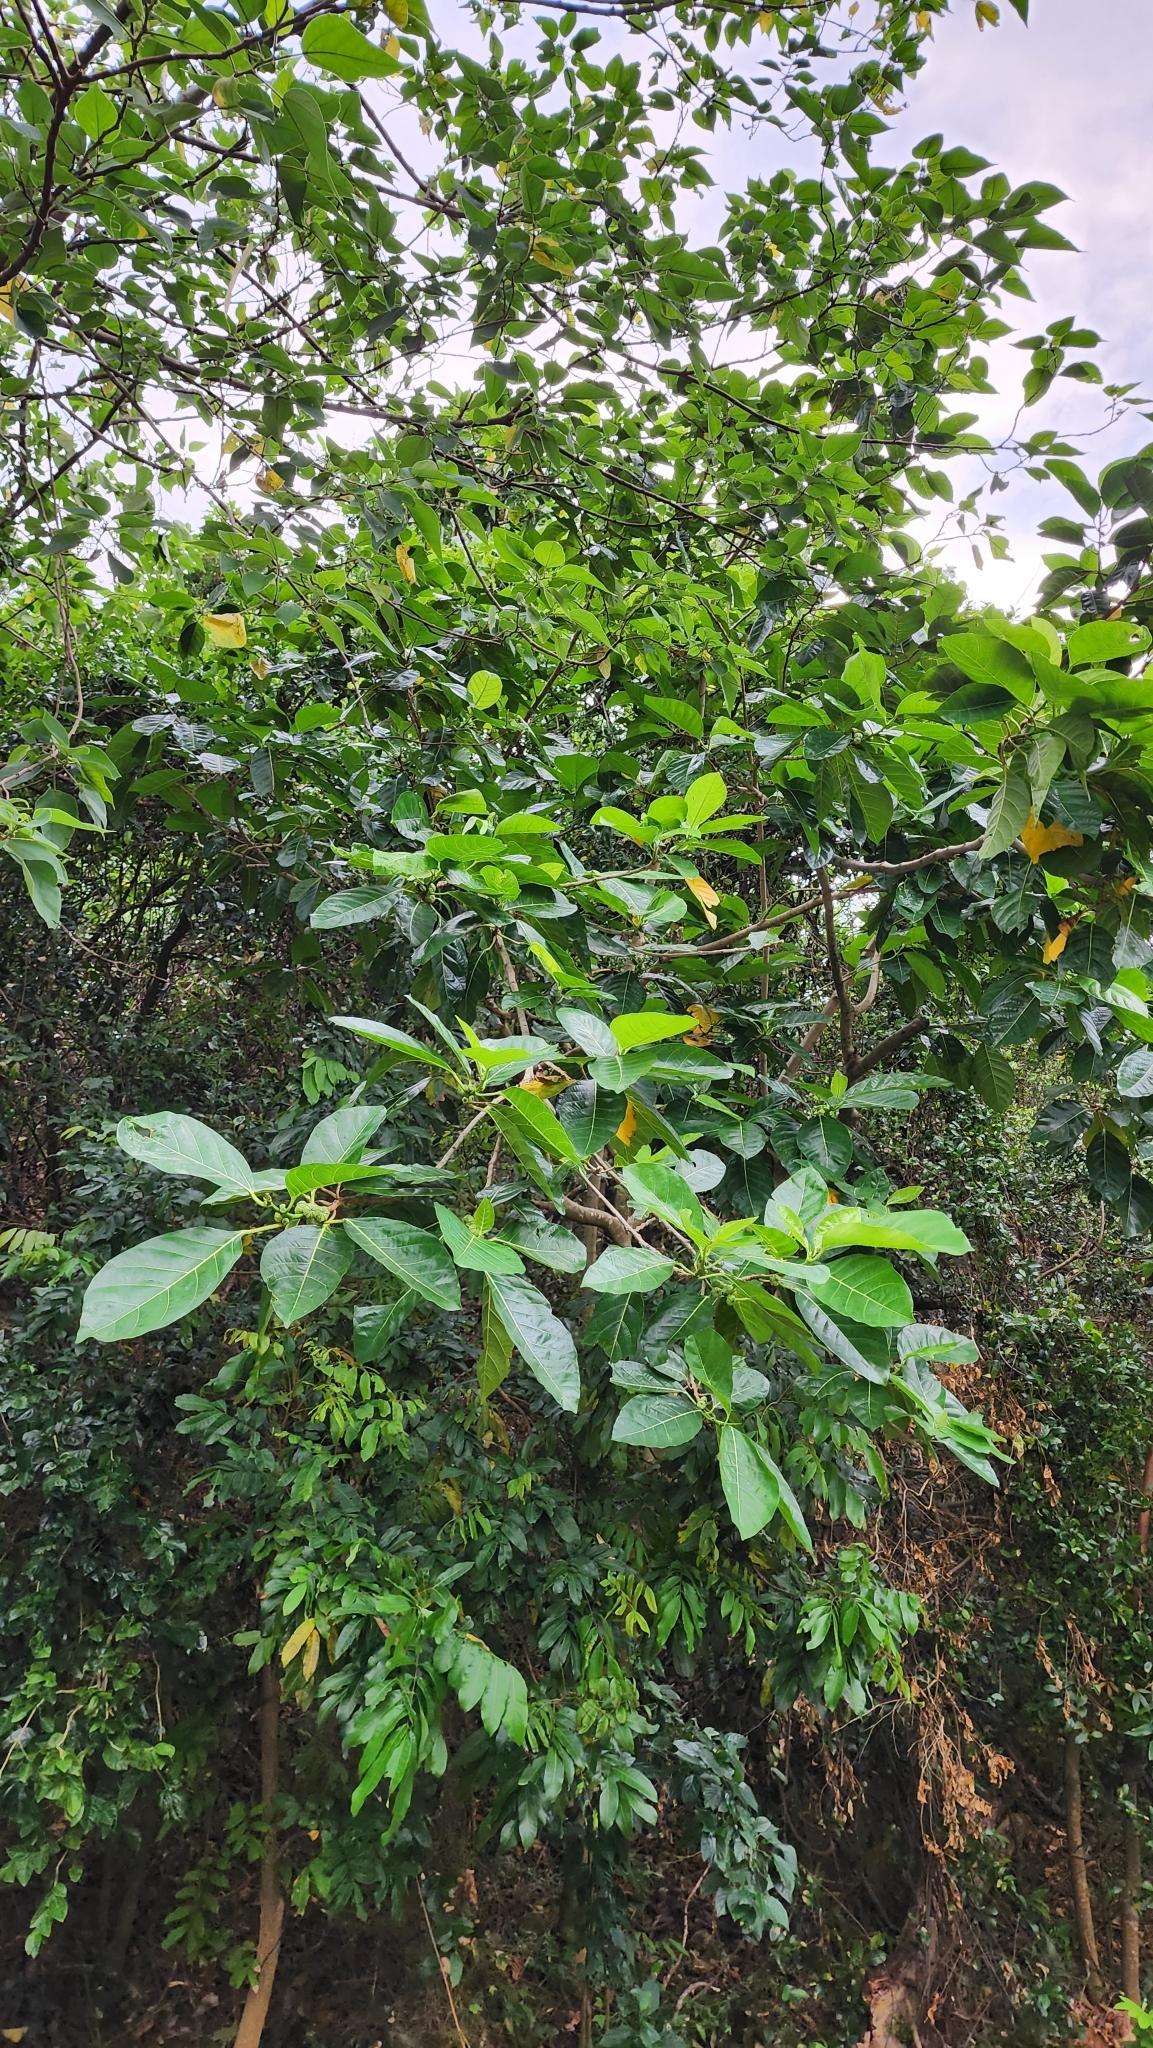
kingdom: Plantae
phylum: Tracheophyta
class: Magnoliopsida
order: Rosales
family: Moraceae
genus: Ficus
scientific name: Ficus septica
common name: Septic fig
